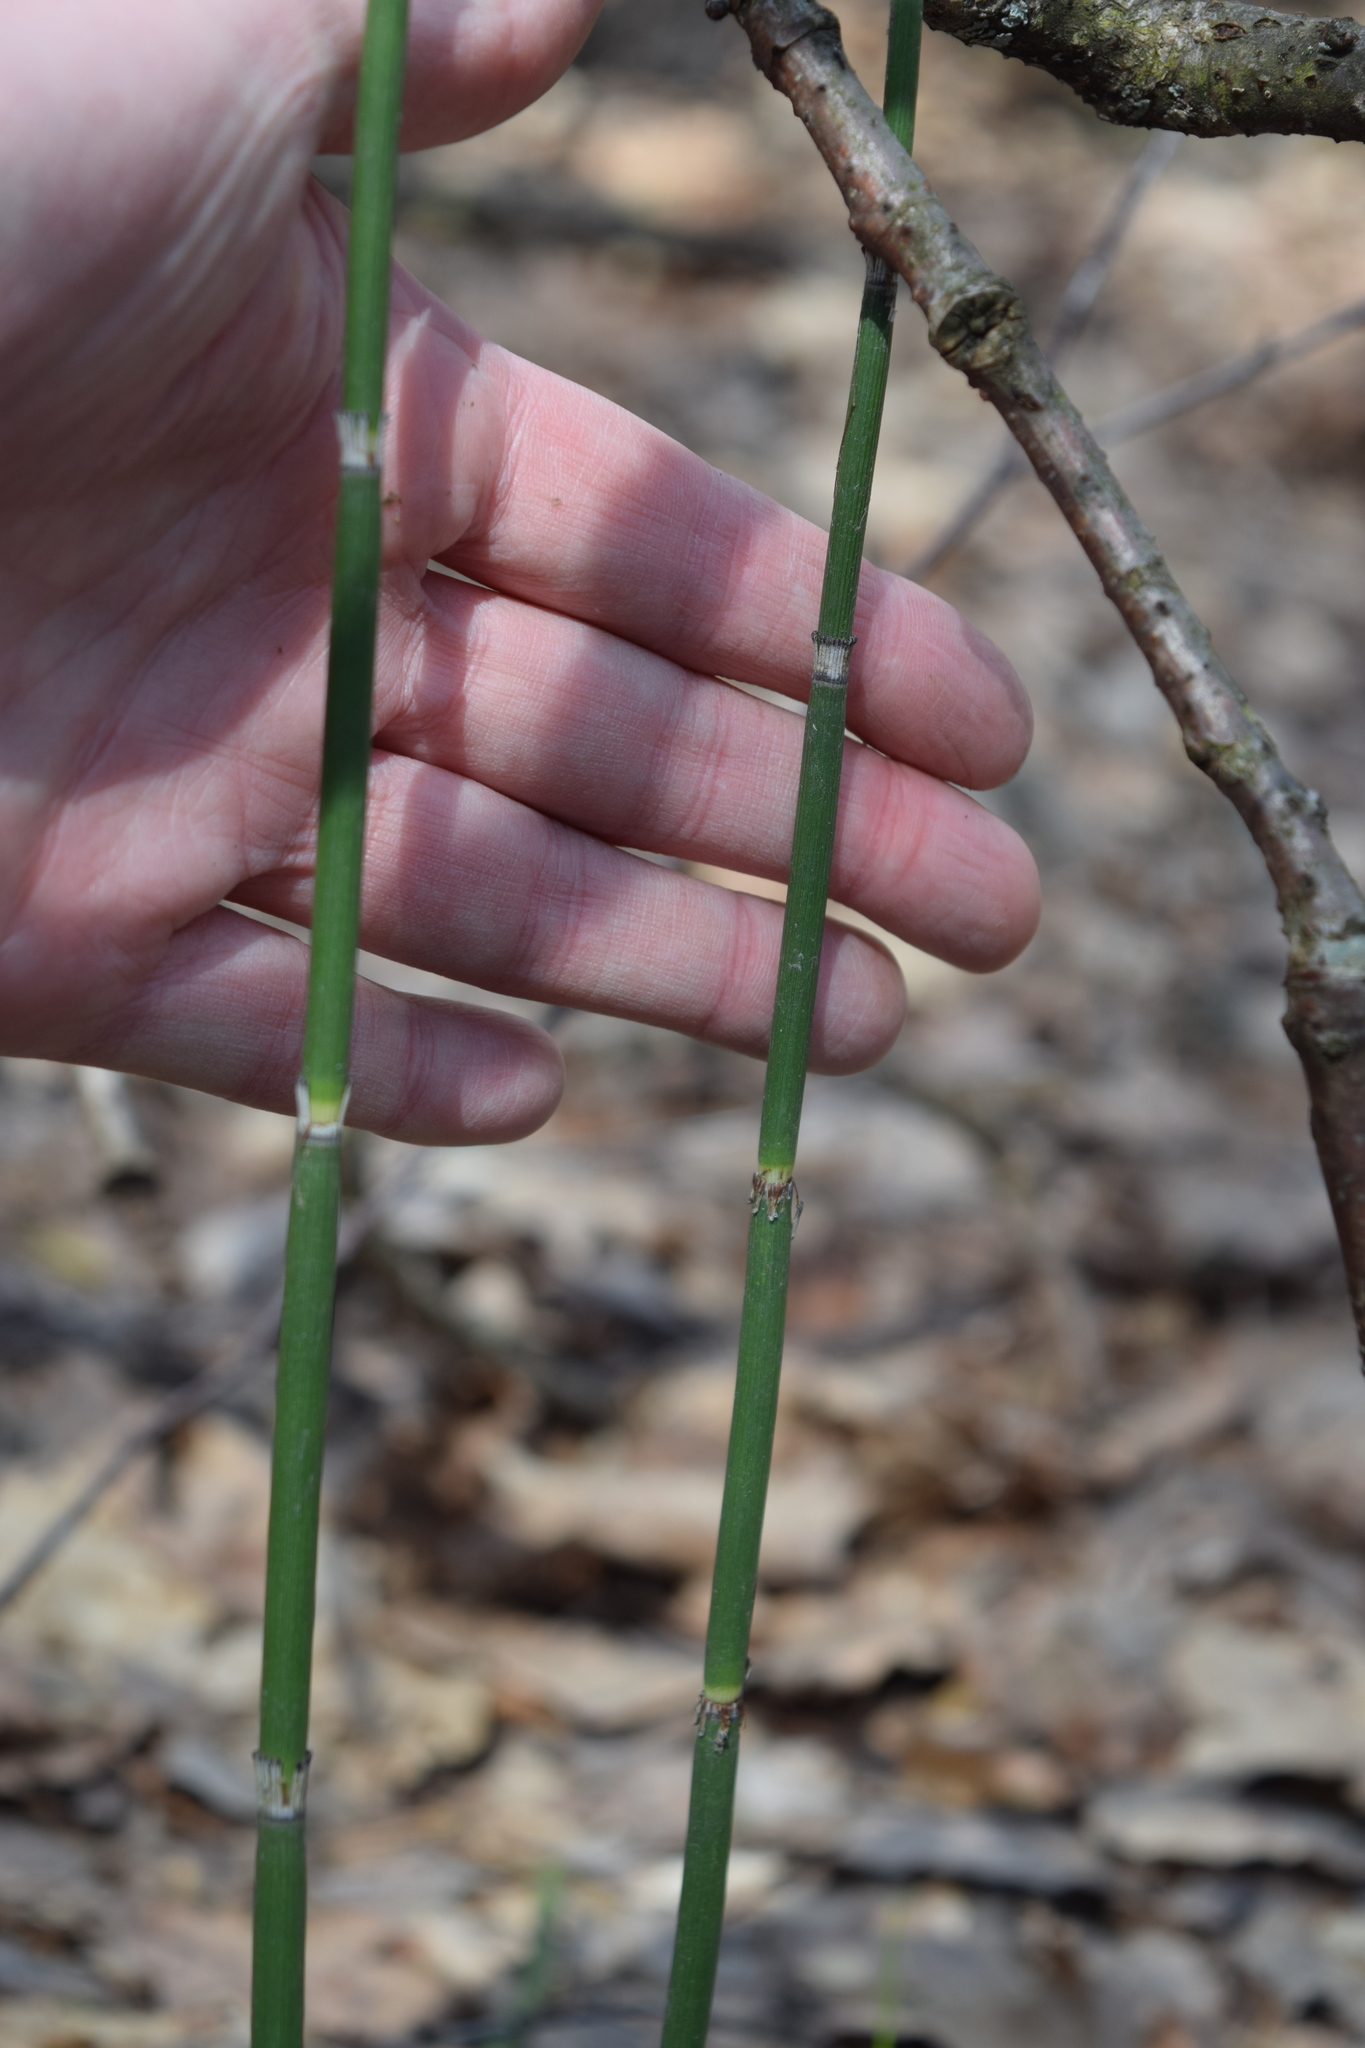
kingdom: Plantae
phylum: Tracheophyta
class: Polypodiopsida
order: Equisetales
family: Equisetaceae
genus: Equisetum
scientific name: Equisetum hyemale
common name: Rough horsetail
